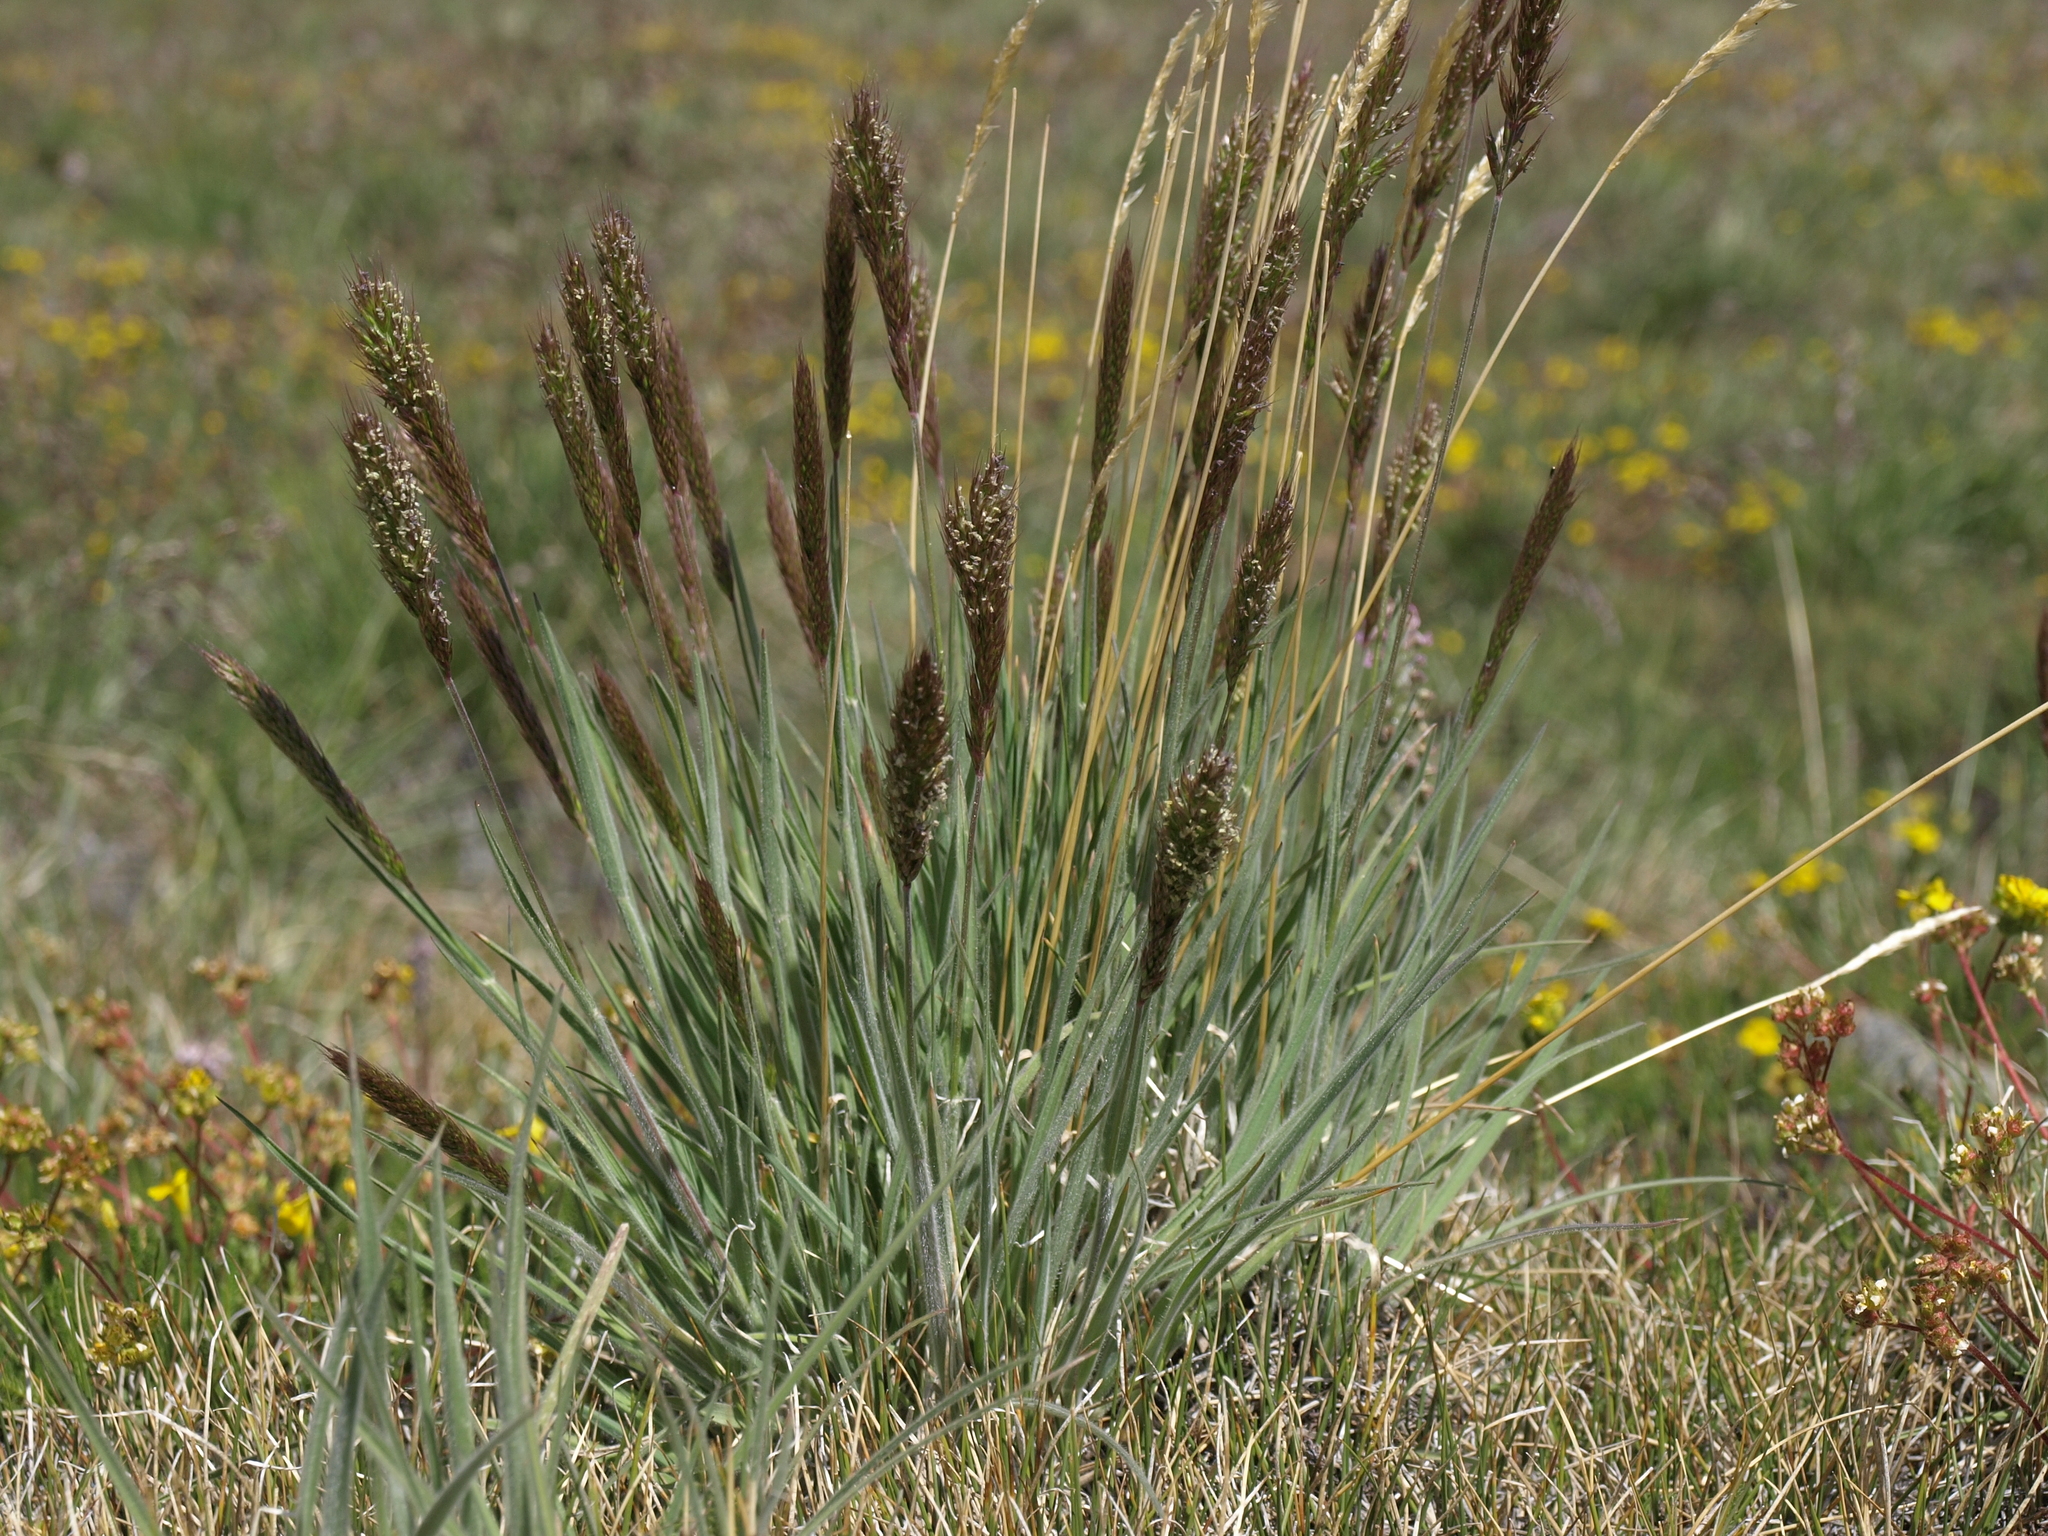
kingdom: Plantae
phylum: Tracheophyta
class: Liliopsida
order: Poales
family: Poaceae
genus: Koeleria
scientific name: Koeleria spicata
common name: Mountain trisetum
